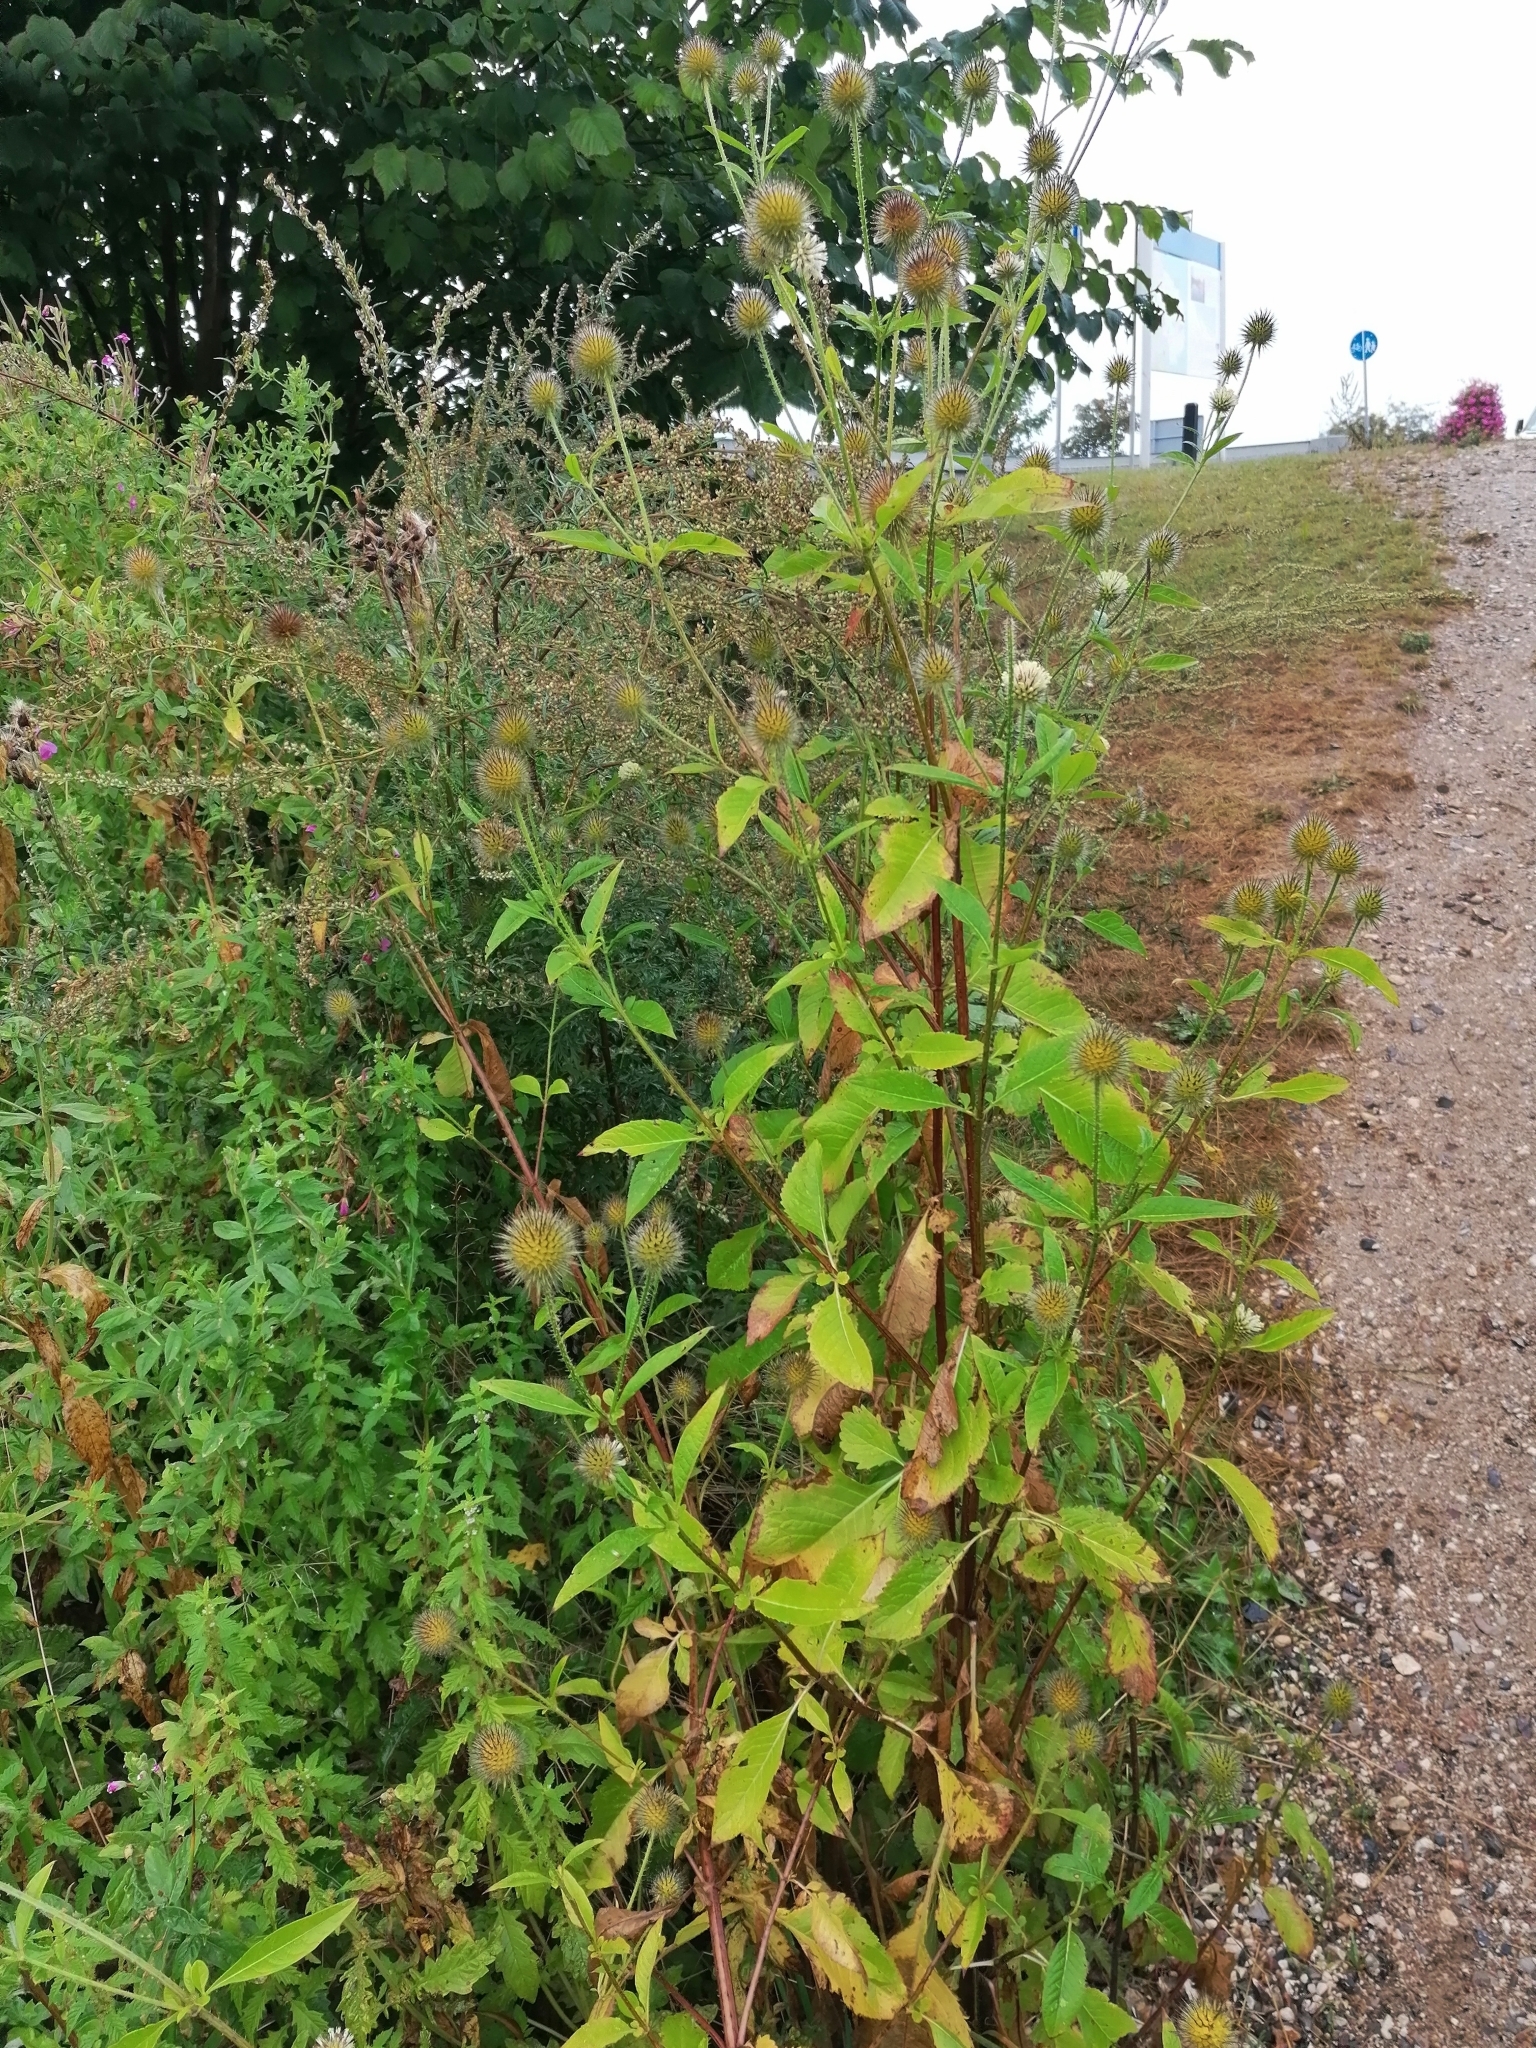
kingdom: Plantae
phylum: Tracheophyta
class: Magnoliopsida
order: Dipsacales
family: Caprifoliaceae
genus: Dipsacus
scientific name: Dipsacus strigosus
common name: Yellow-flowered teasel
